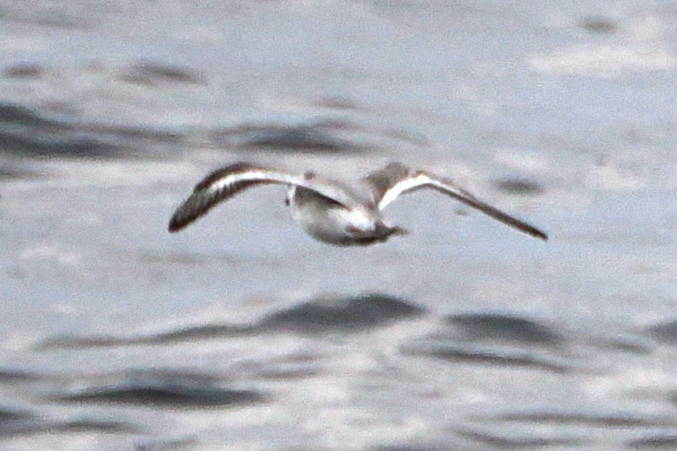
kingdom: Animalia
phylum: Chordata
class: Aves
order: Charadriiformes
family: Scolopacidae
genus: Phalaropus
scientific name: Phalaropus fulicarius
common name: Red phalarope
